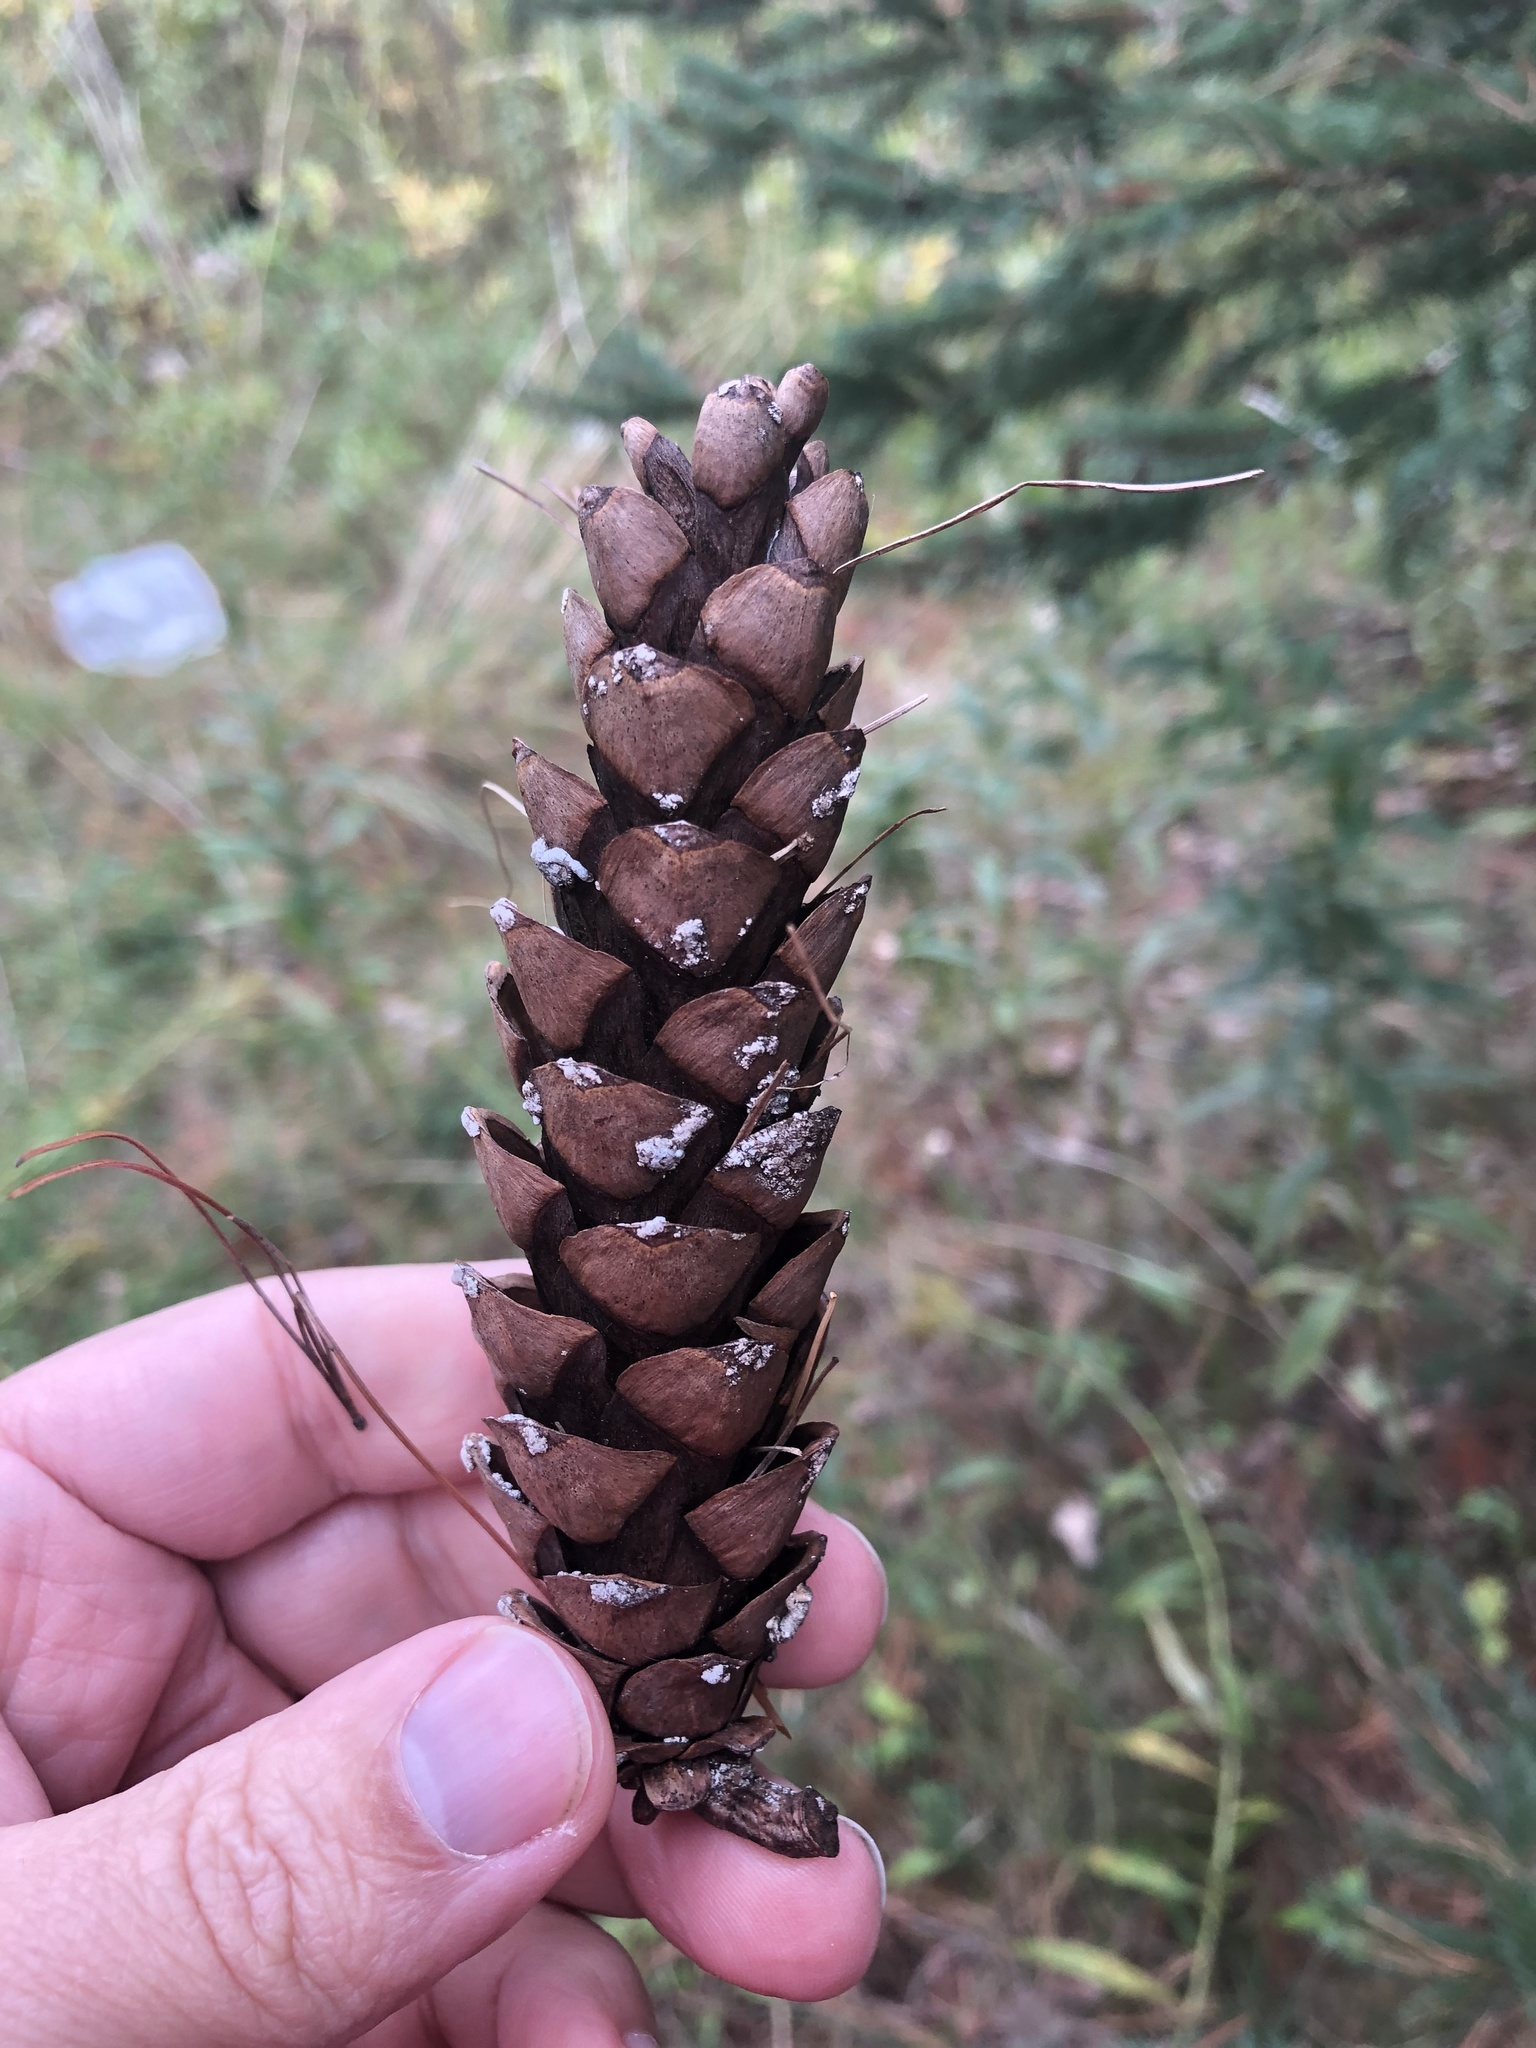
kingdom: Plantae
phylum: Tracheophyta
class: Pinopsida
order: Pinales
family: Pinaceae
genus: Pinus
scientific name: Pinus strobus
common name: Weymouth pine
